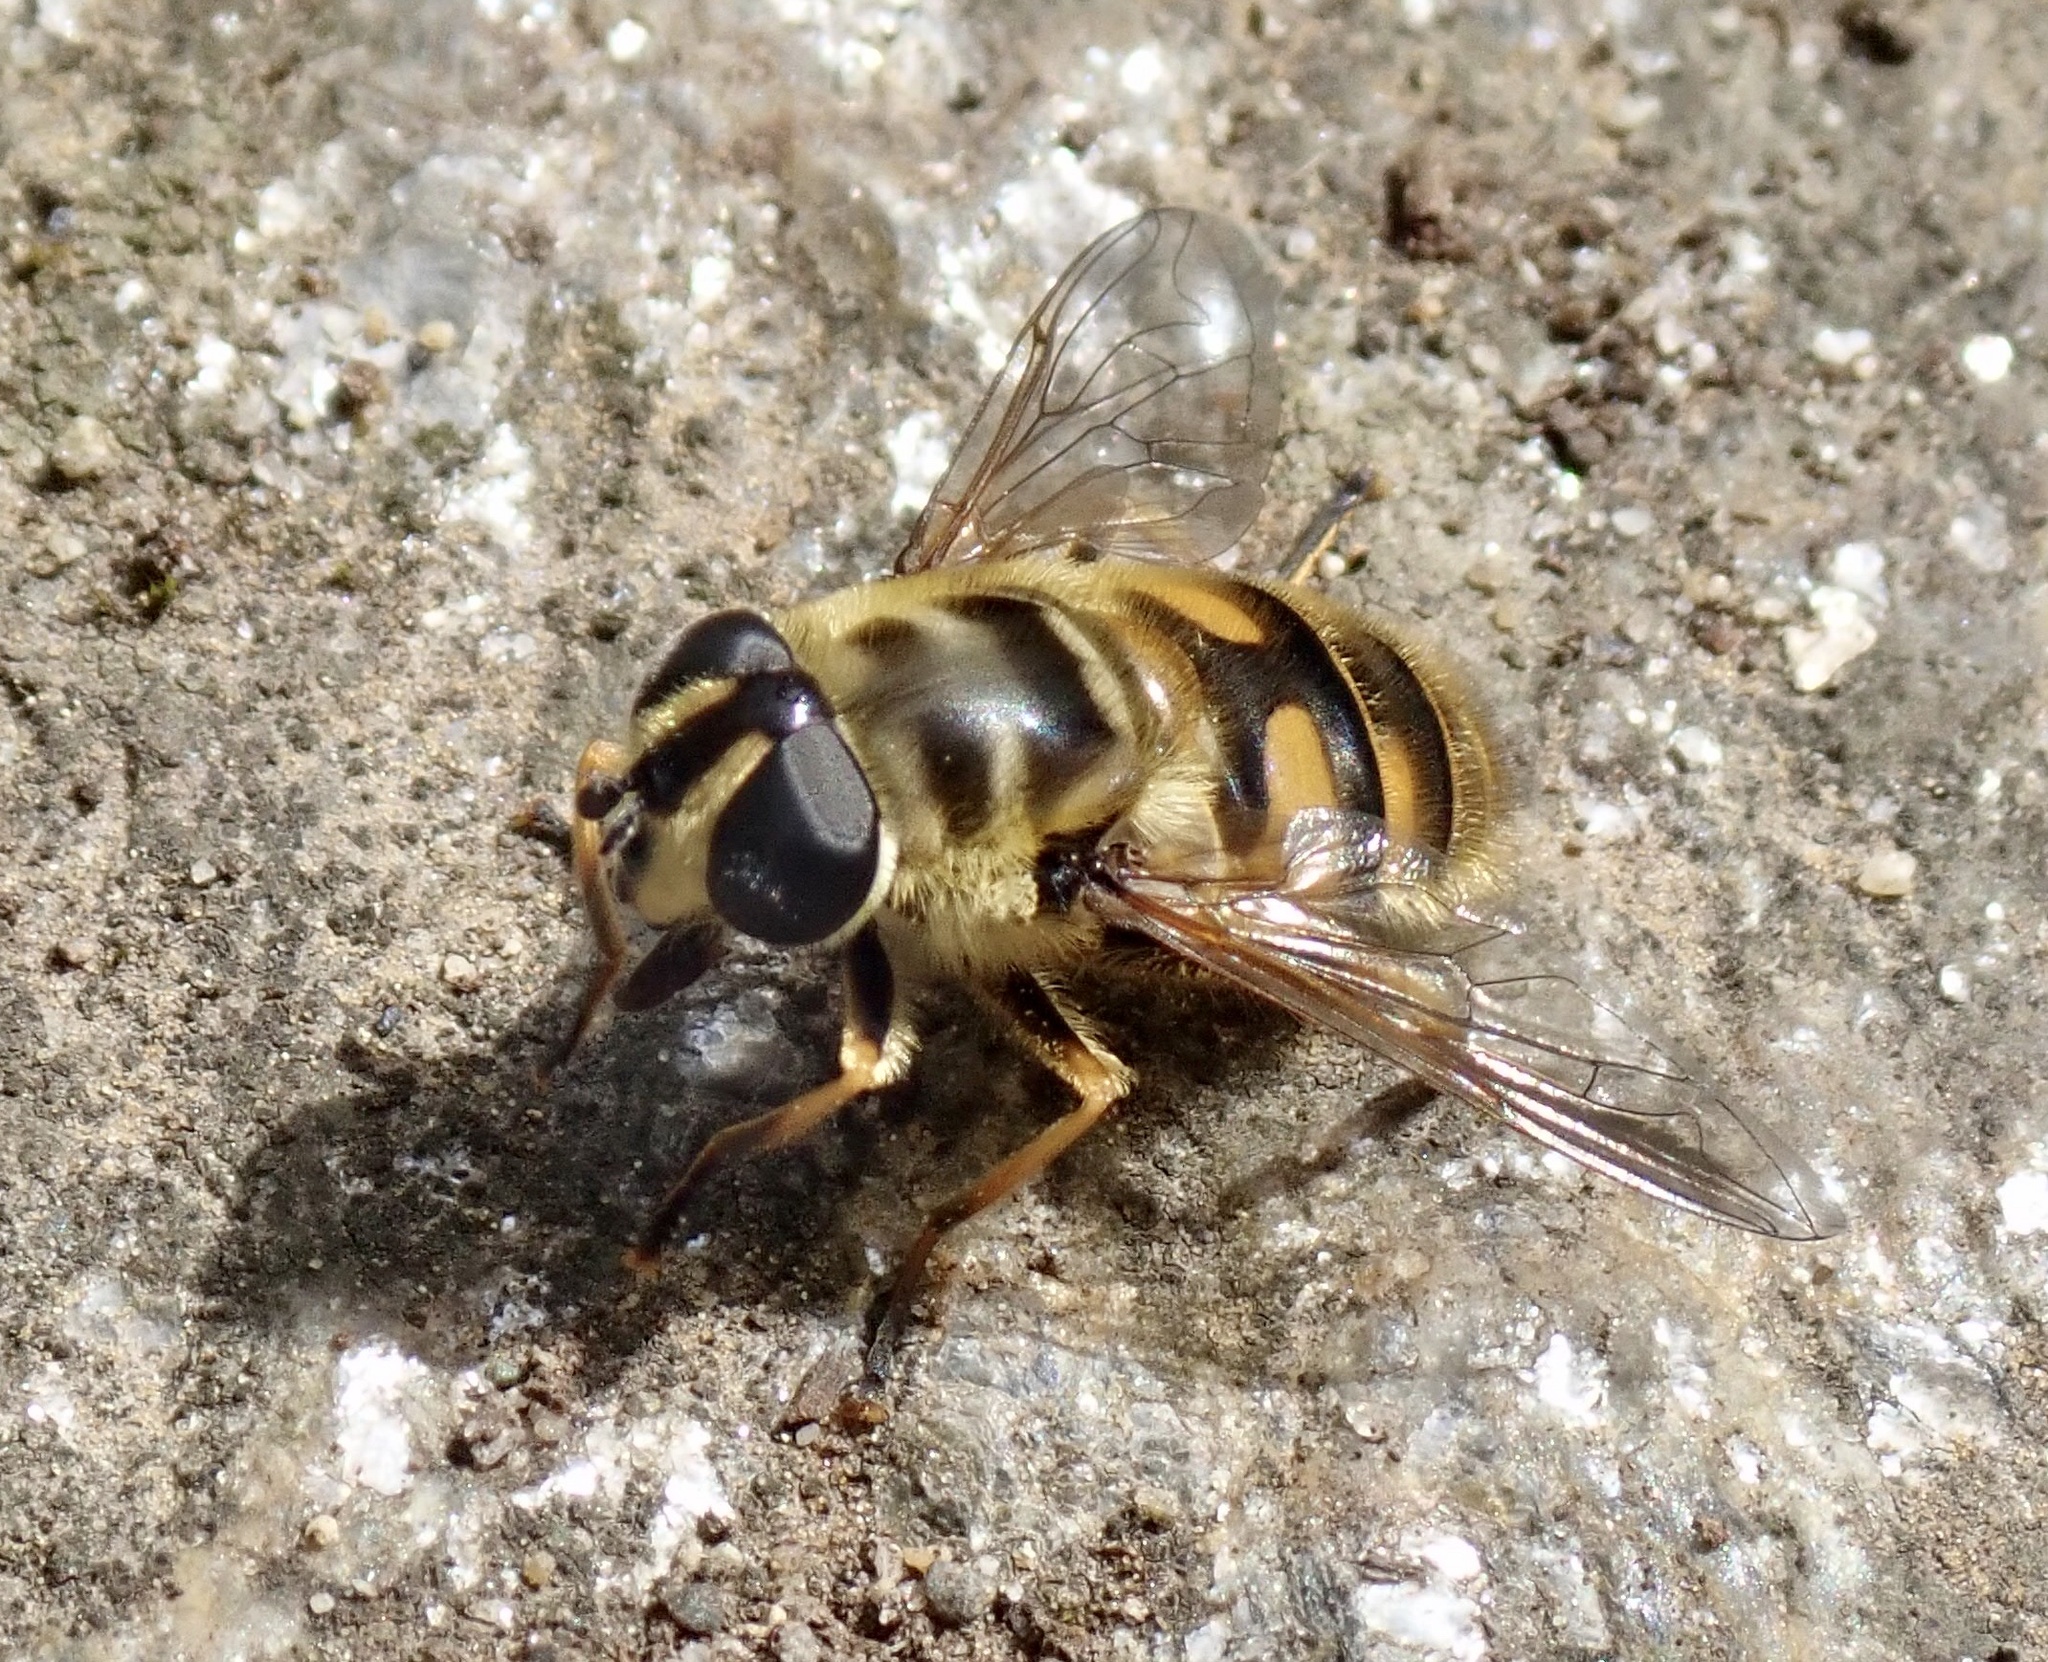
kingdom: Animalia
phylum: Arthropoda
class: Insecta
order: Diptera
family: Syrphidae
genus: Myathropa
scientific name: Myathropa florea
